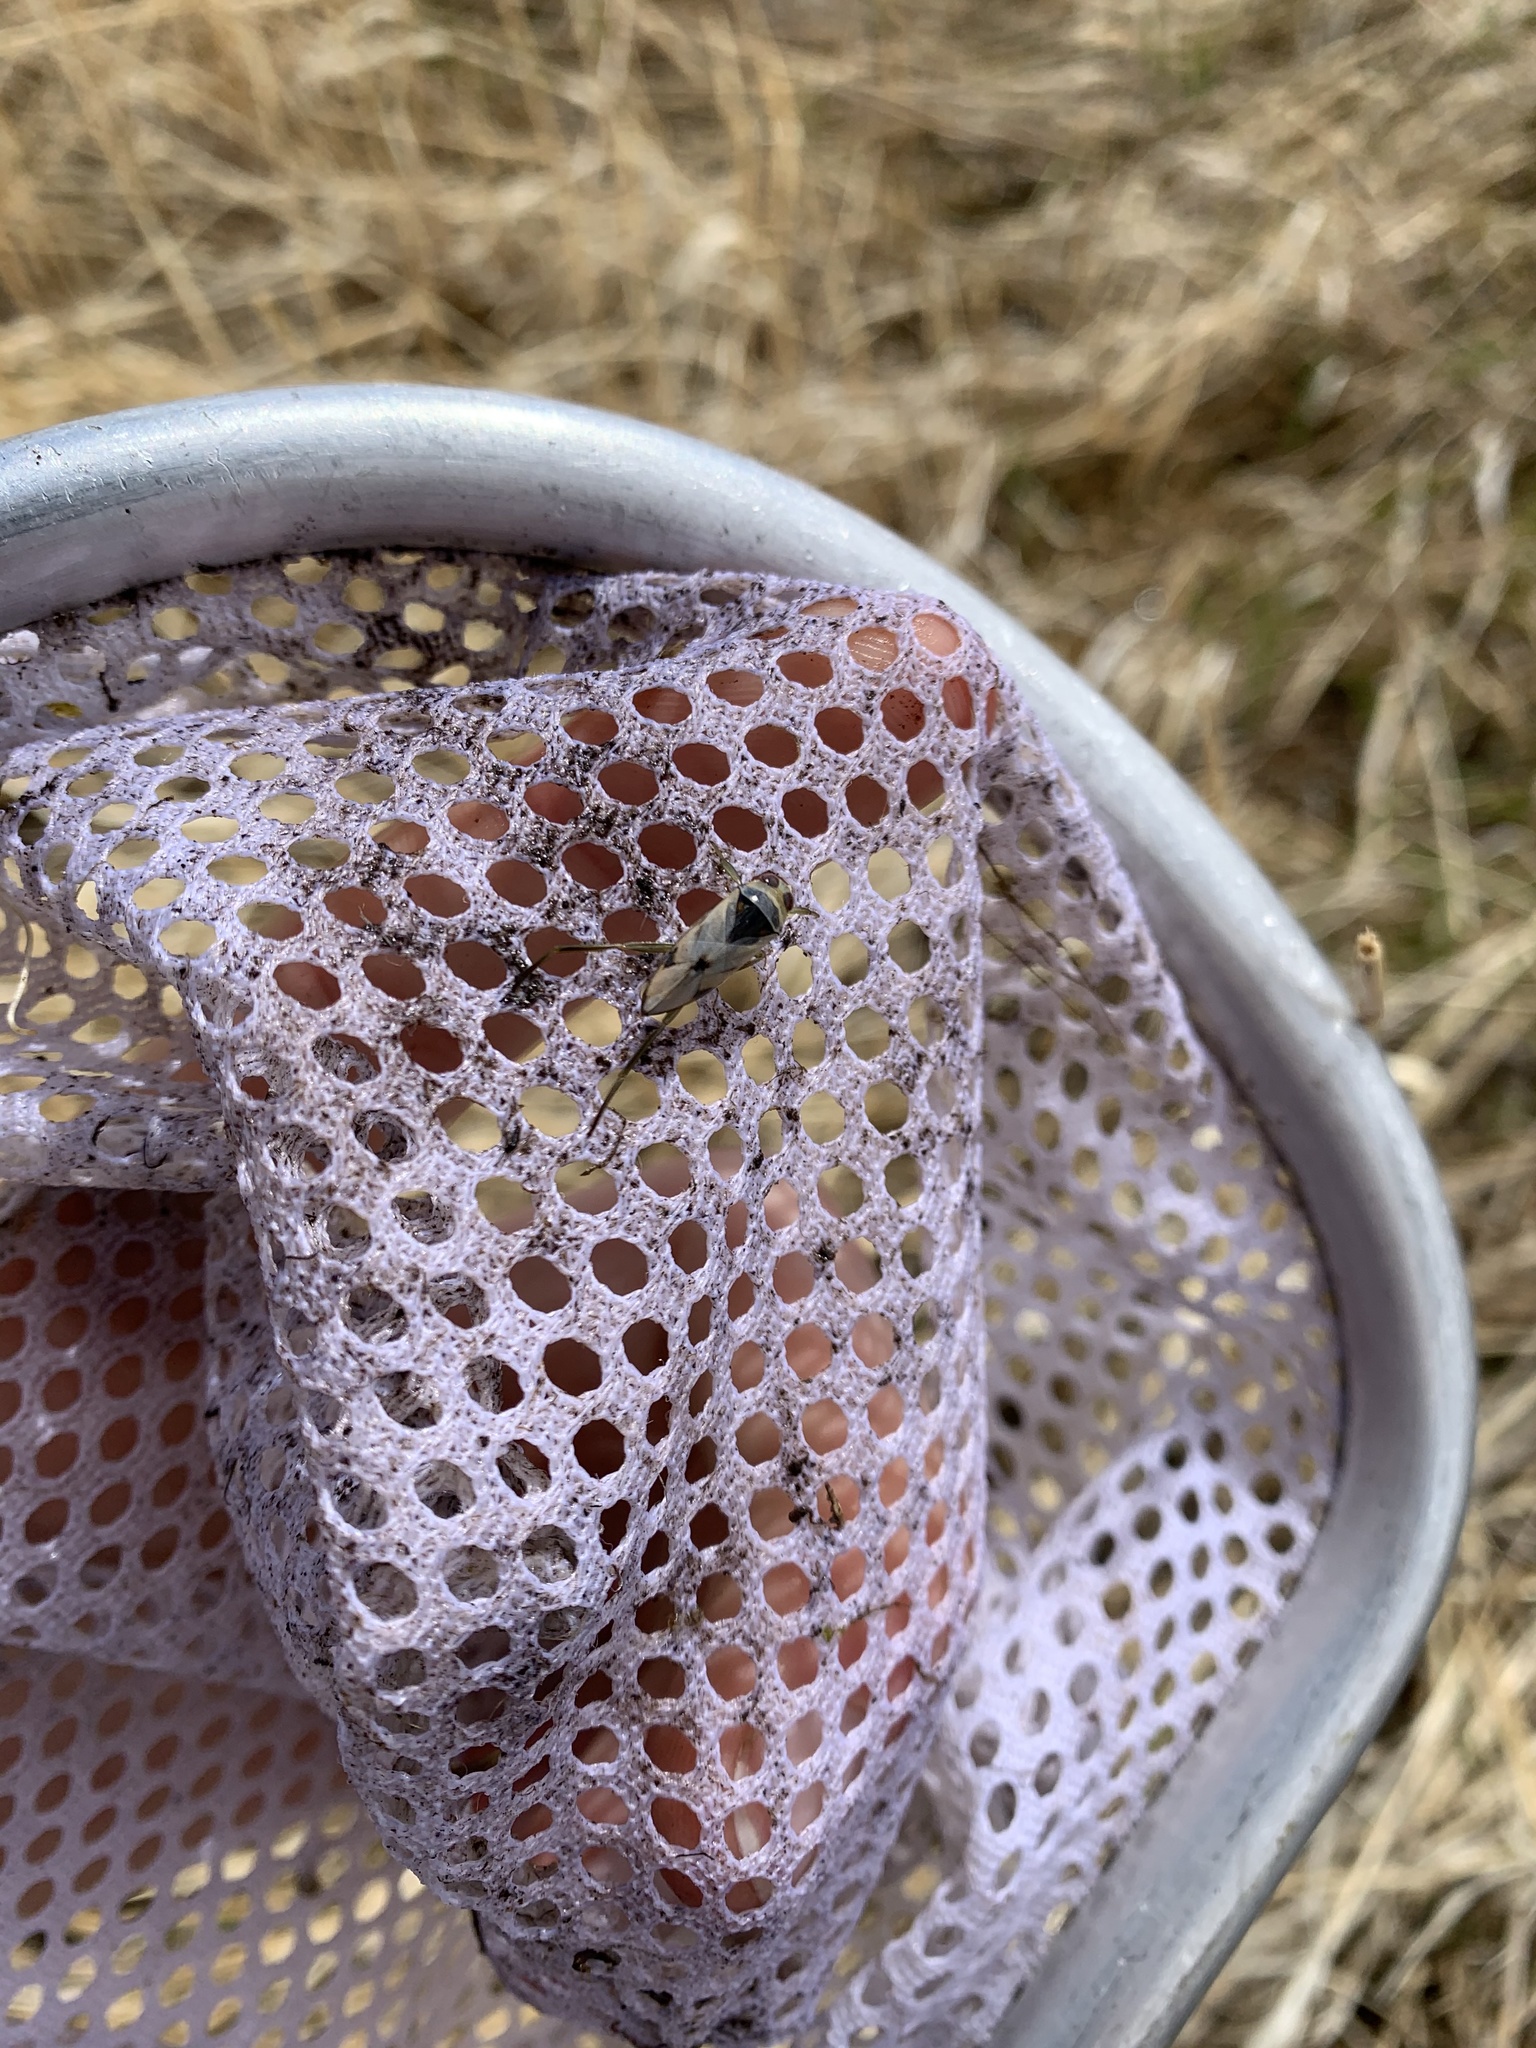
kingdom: Animalia
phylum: Arthropoda
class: Insecta
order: Hemiptera
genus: Paranecta
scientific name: Paranecta
